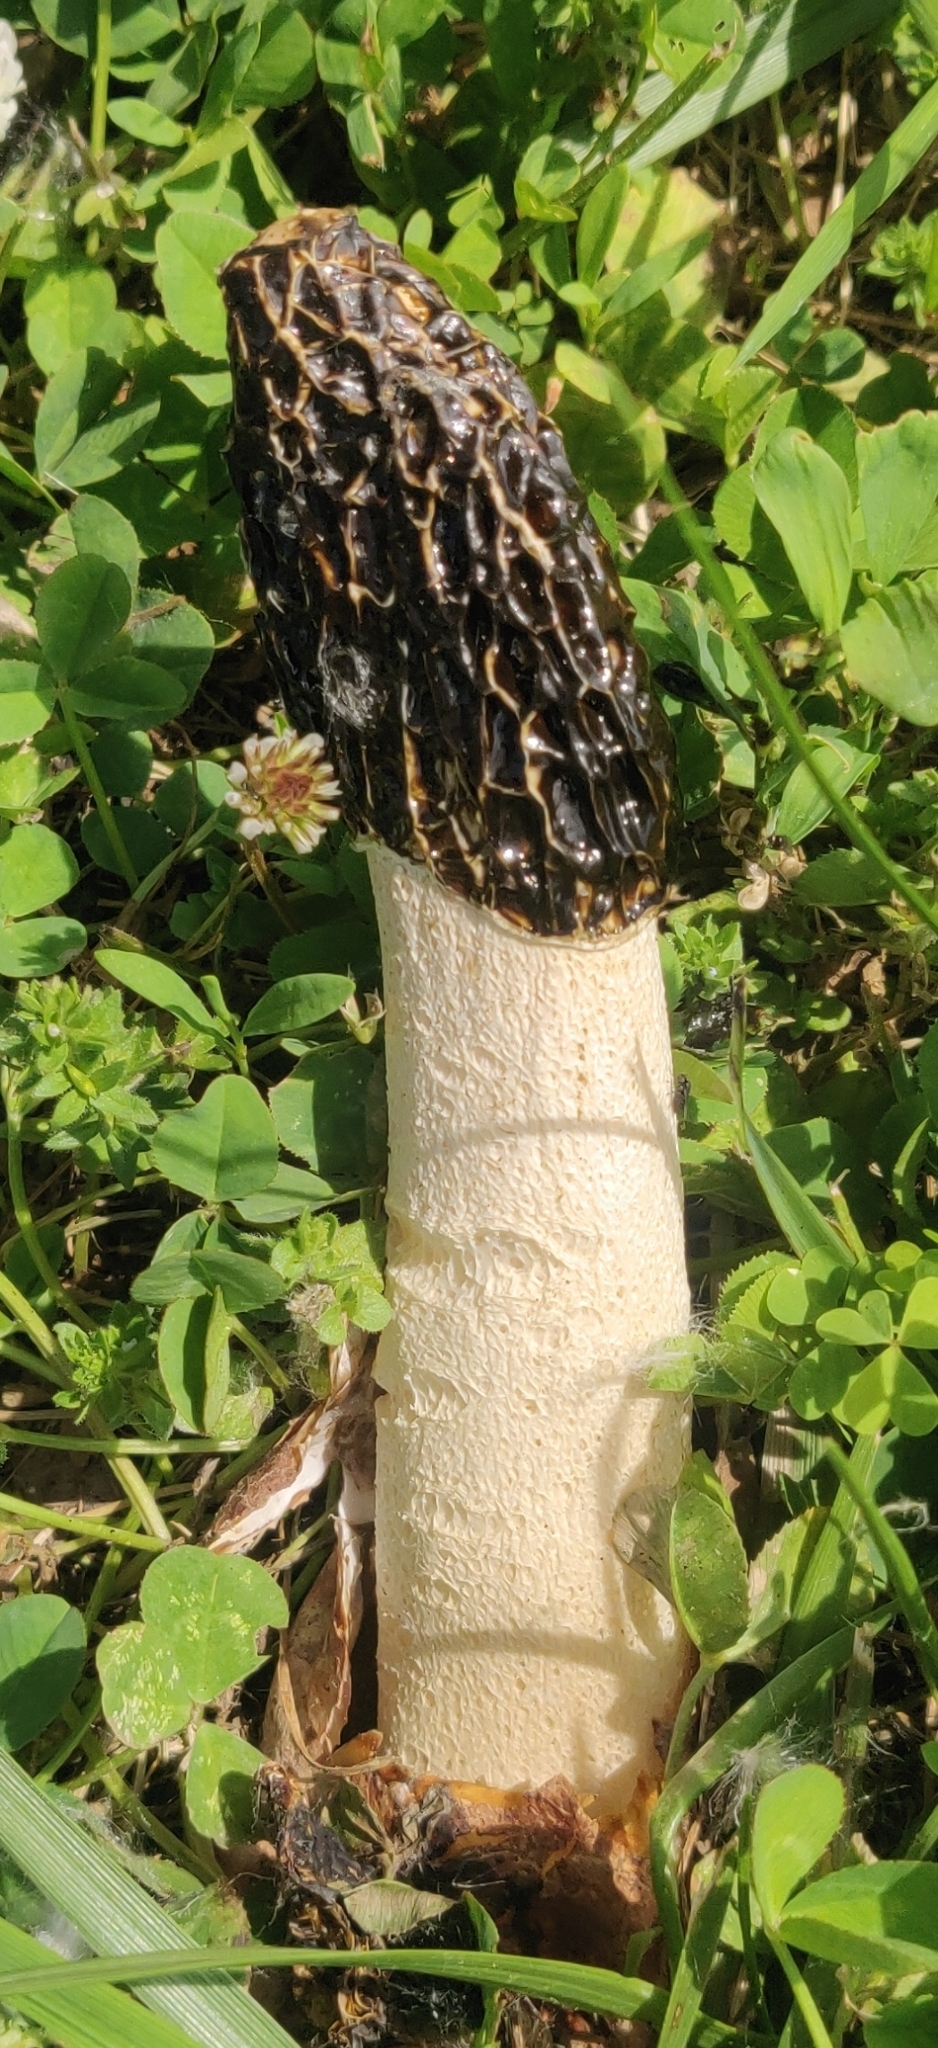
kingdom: Fungi
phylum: Basidiomycota
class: Agaricomycetes
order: Phallales
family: Phallaceae
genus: Phallus
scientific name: Phallus impudicus
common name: Common stinkhorn
